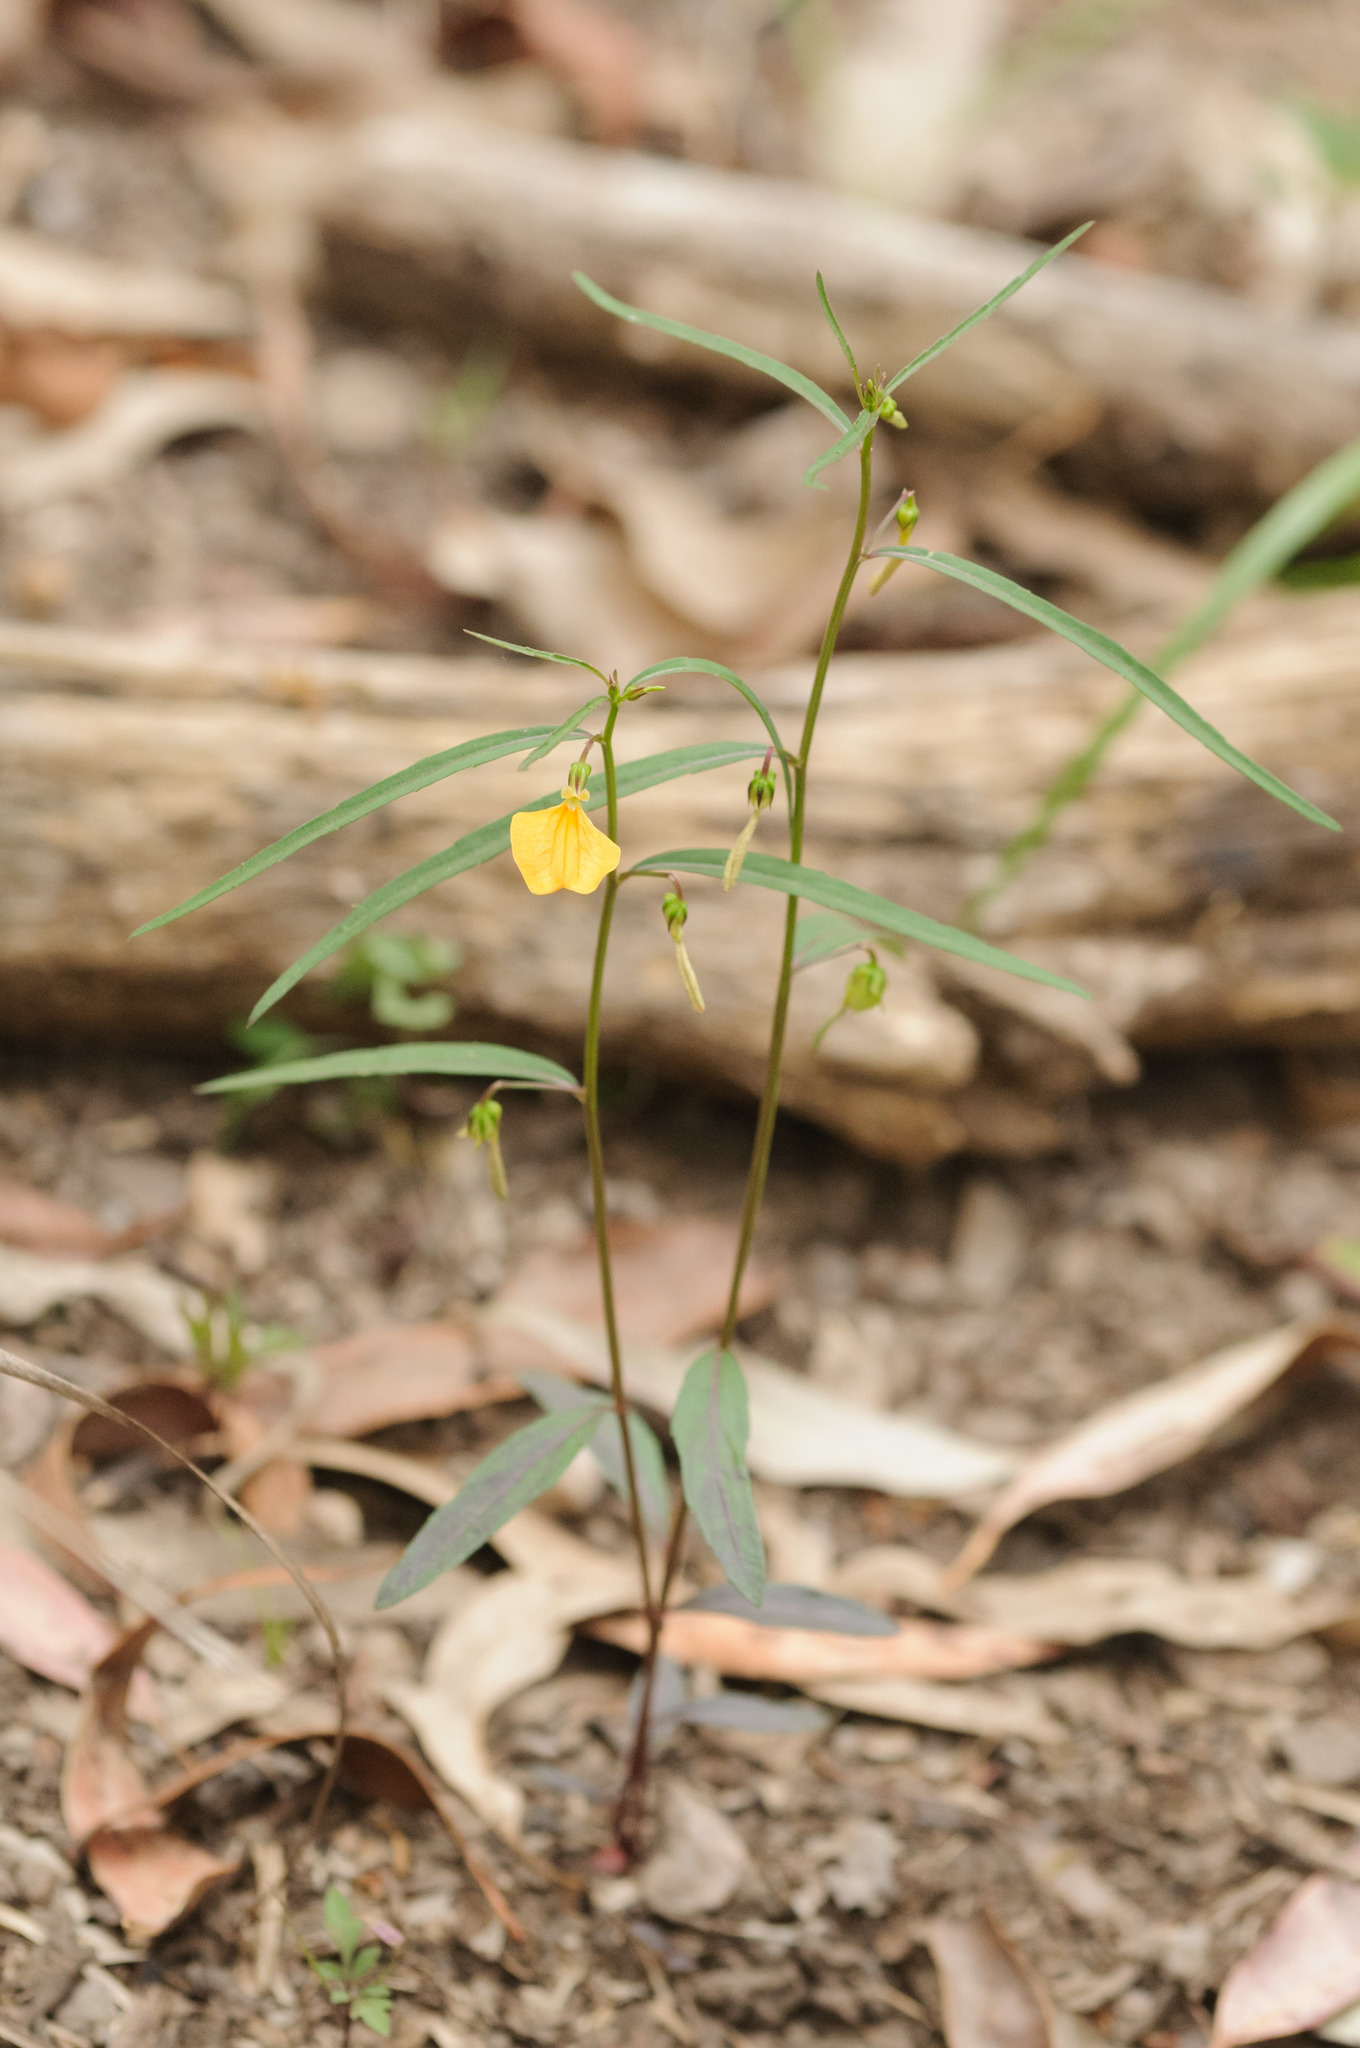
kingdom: Plantae
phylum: Tracheophyta
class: Magnoliopsida
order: Malpighiales
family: Violaceae
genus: Pigea
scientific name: Pigea stellarioides
